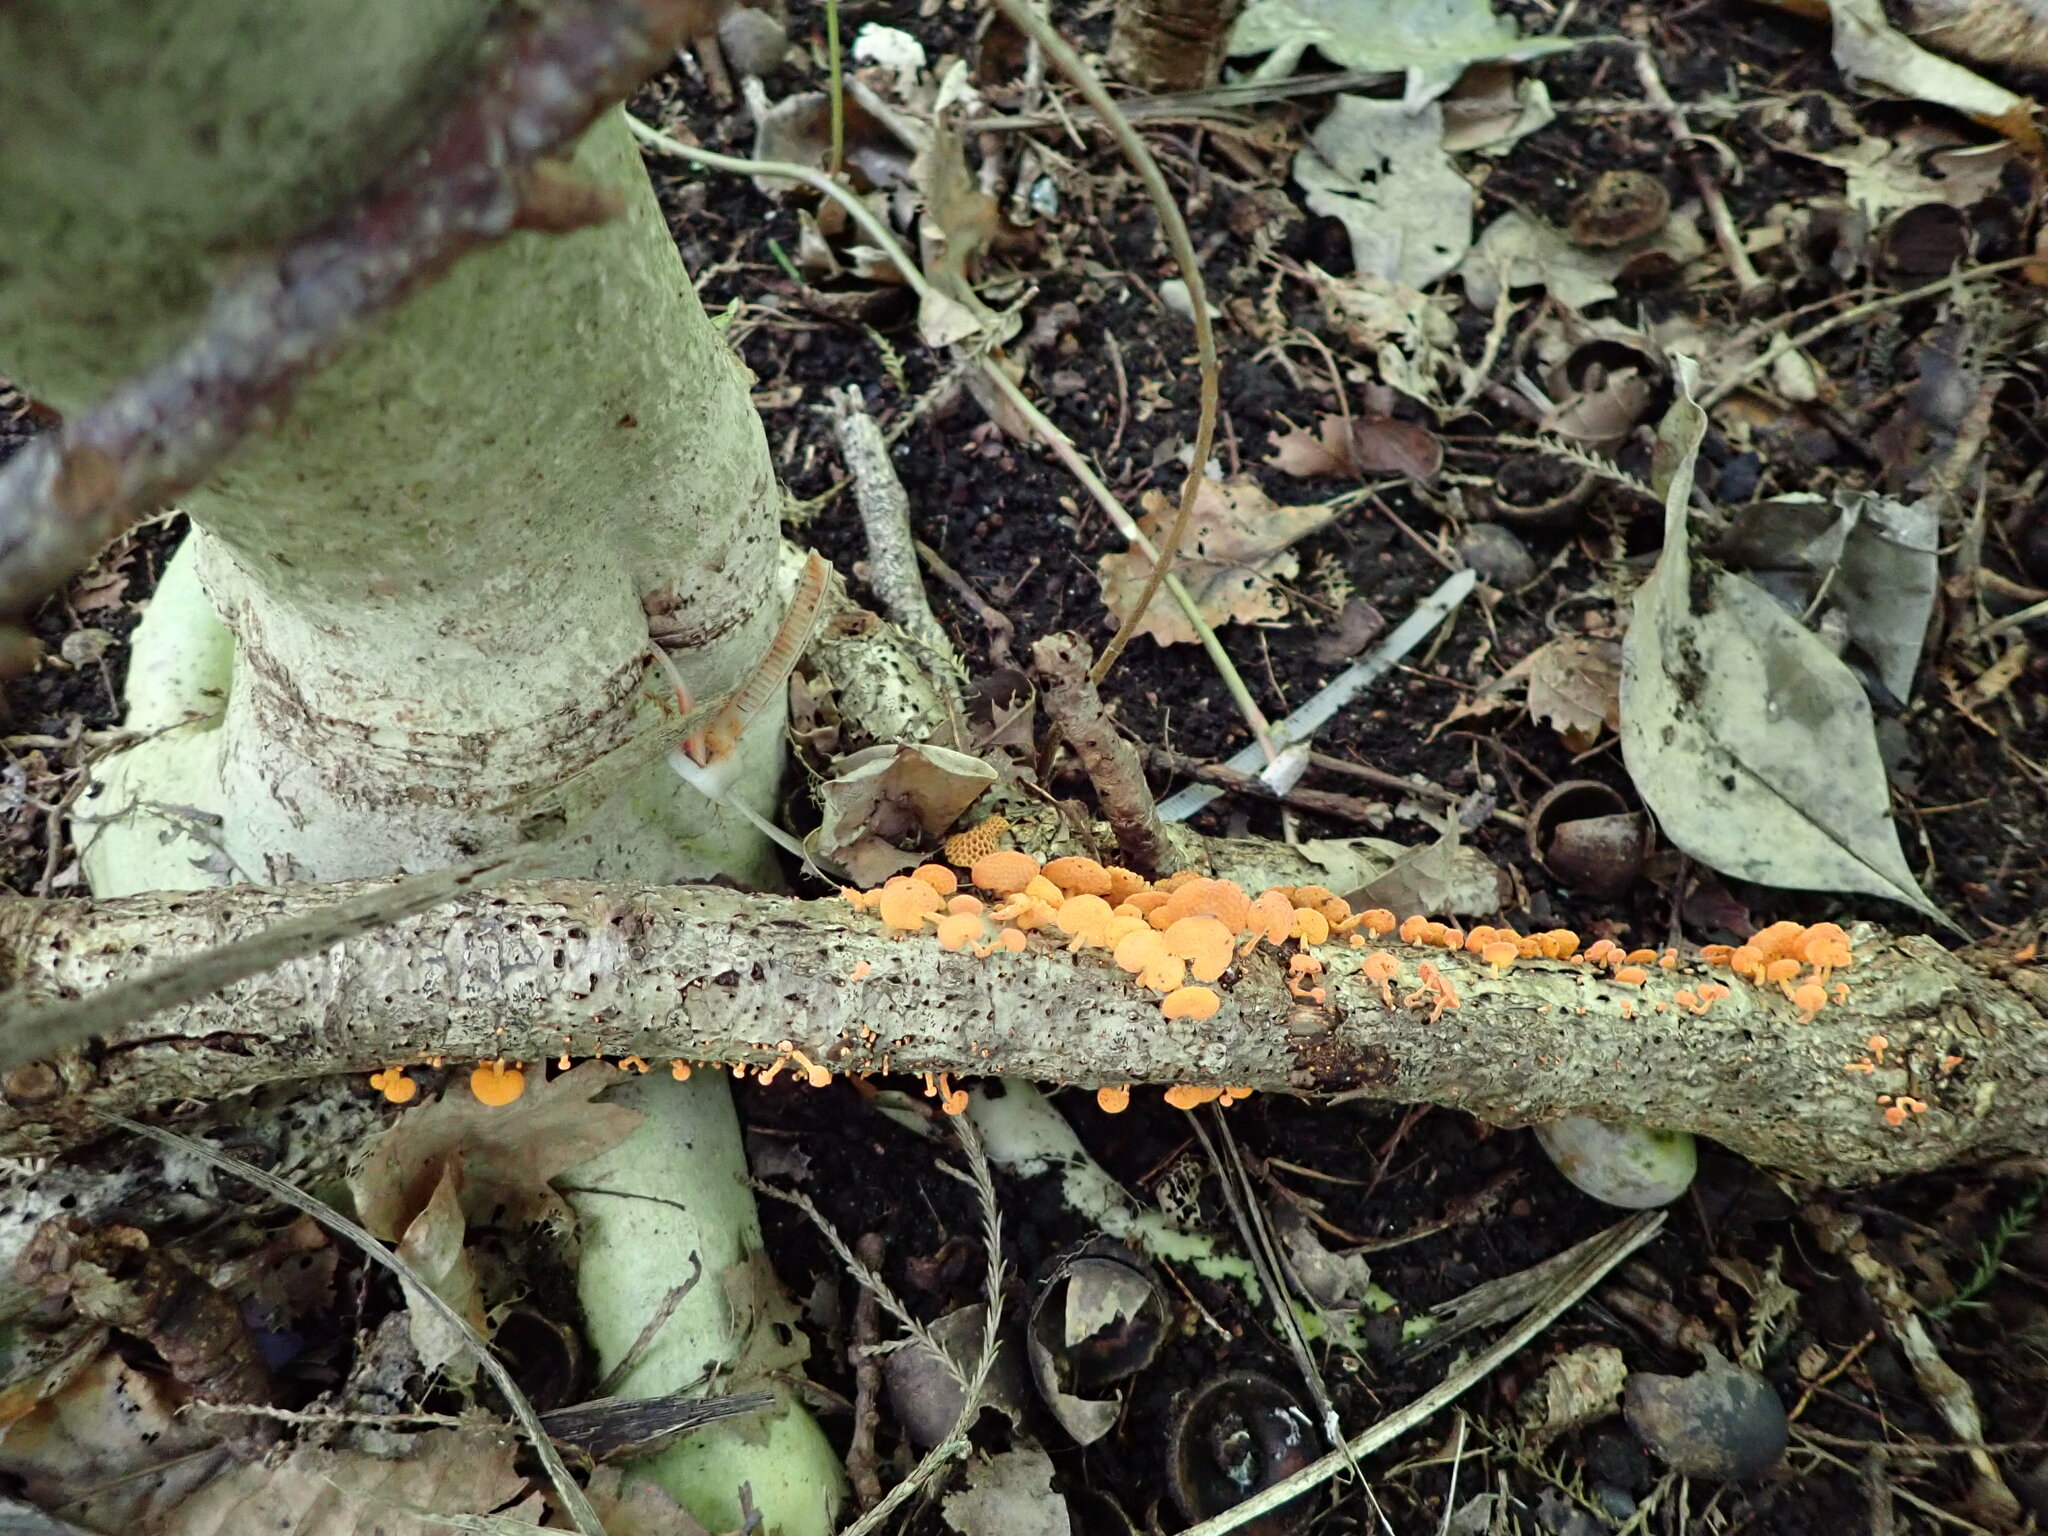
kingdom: Fungi
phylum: Basidiomycota
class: Agaricomycetes
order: Agaricales
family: Mycenaceae
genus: Favolaschia
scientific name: Favolaschia claudopus
